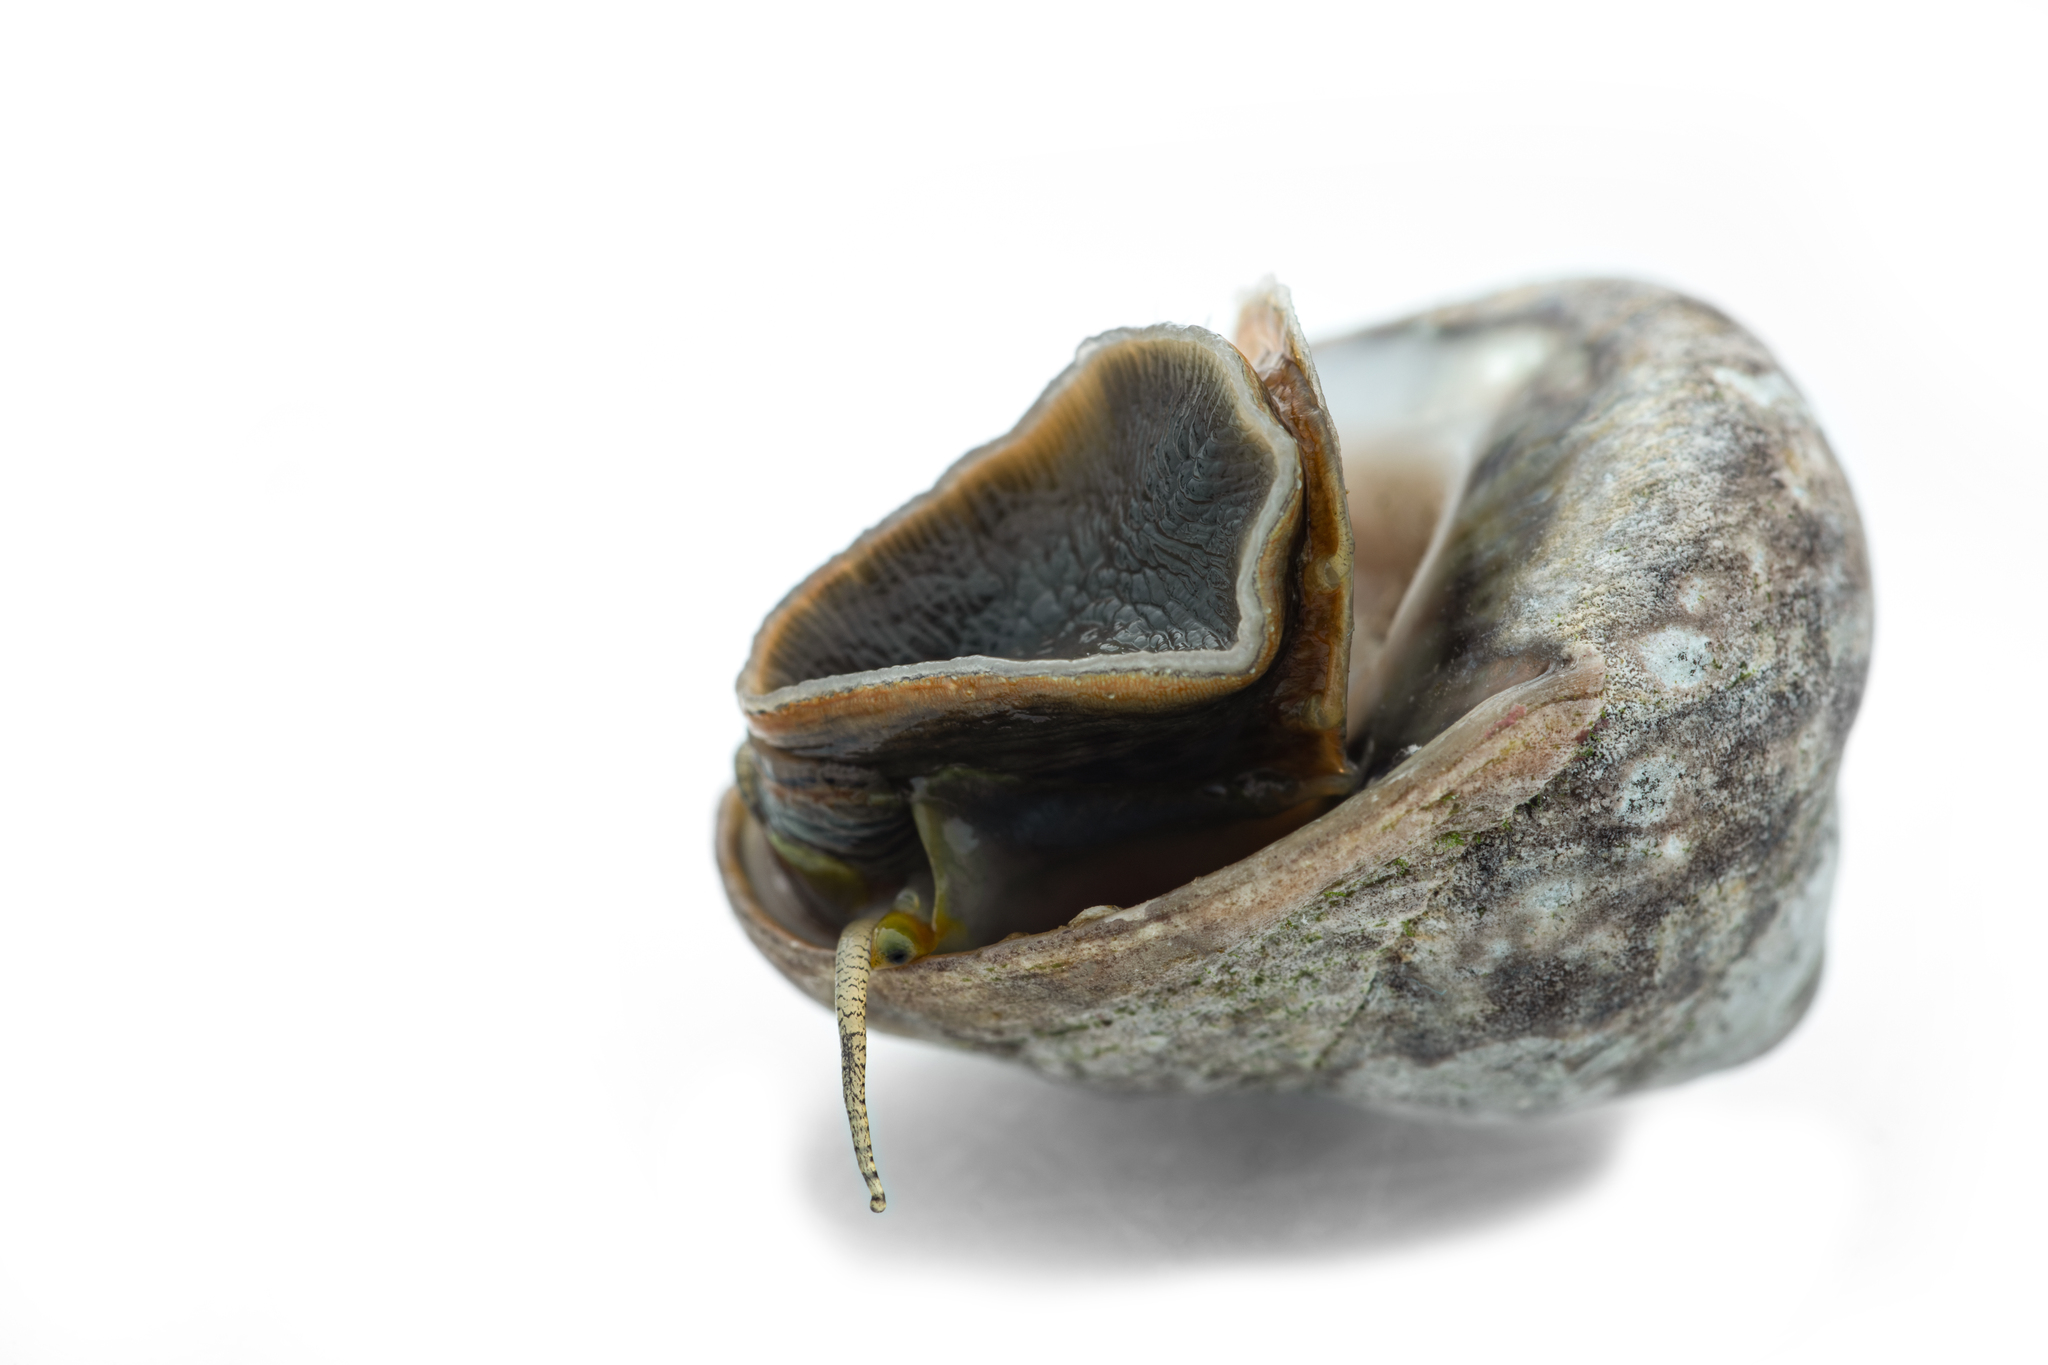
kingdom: Animalia
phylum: Mollusca
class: Gastropoda
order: Trochida
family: Trochidae
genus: Phorcus
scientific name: Phorcus richardi
